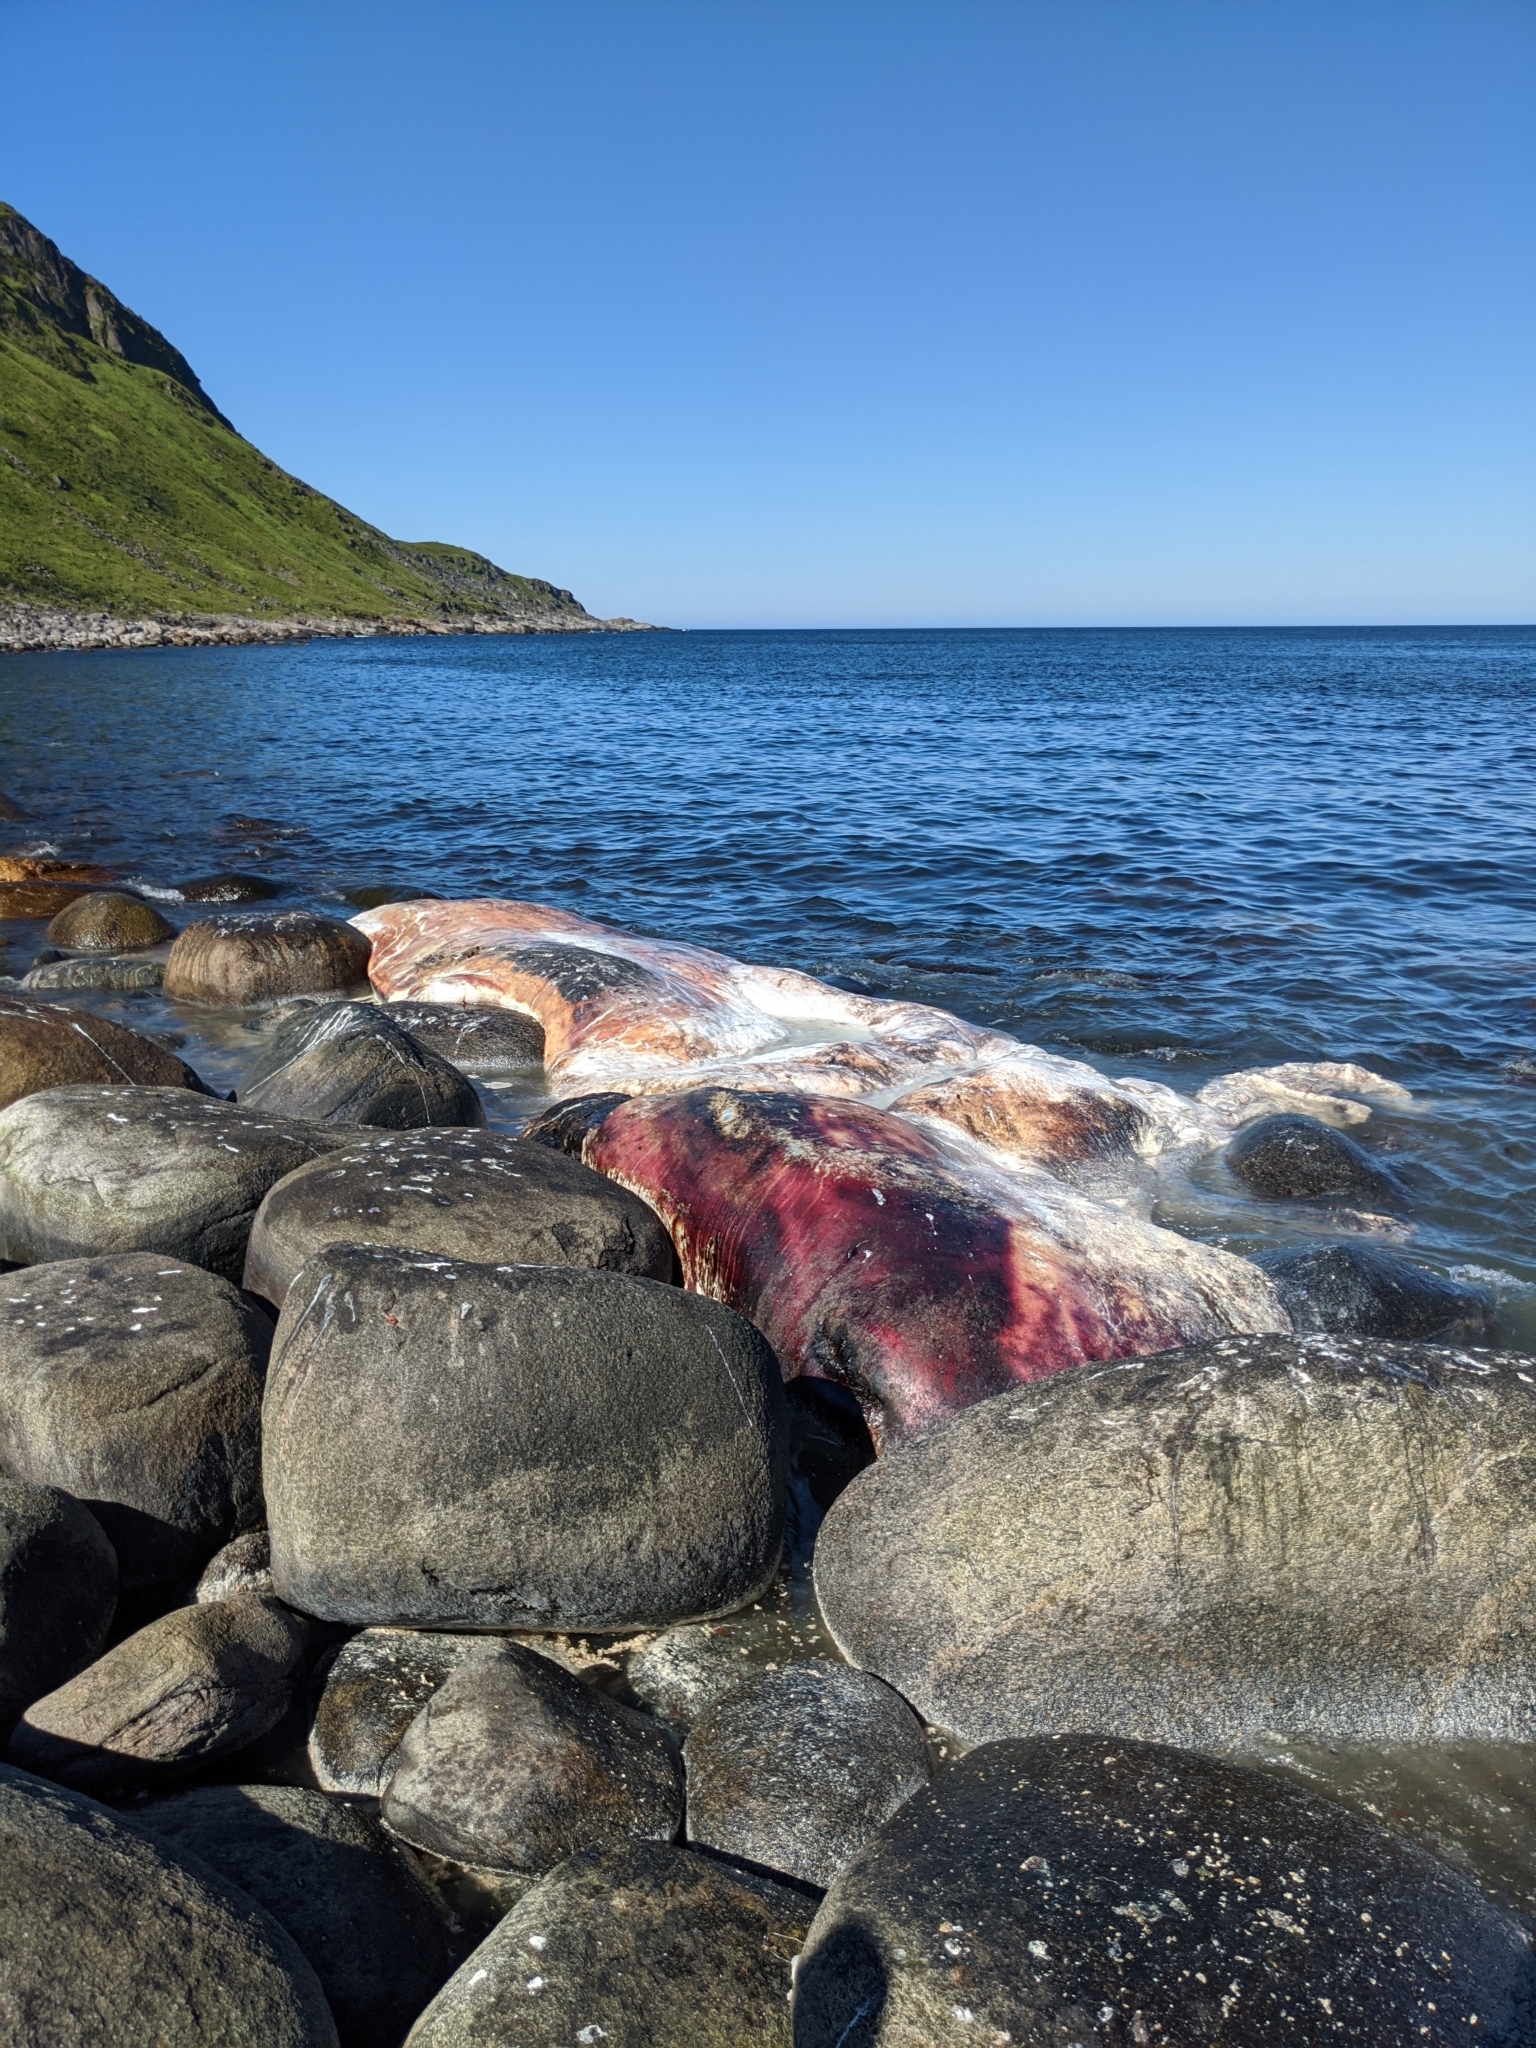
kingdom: Animalia
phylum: Chordata
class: Mammalia
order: Cetacea
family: Physeteridae
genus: Physeter
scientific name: Physeter macrocephalus
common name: Sperm whale
